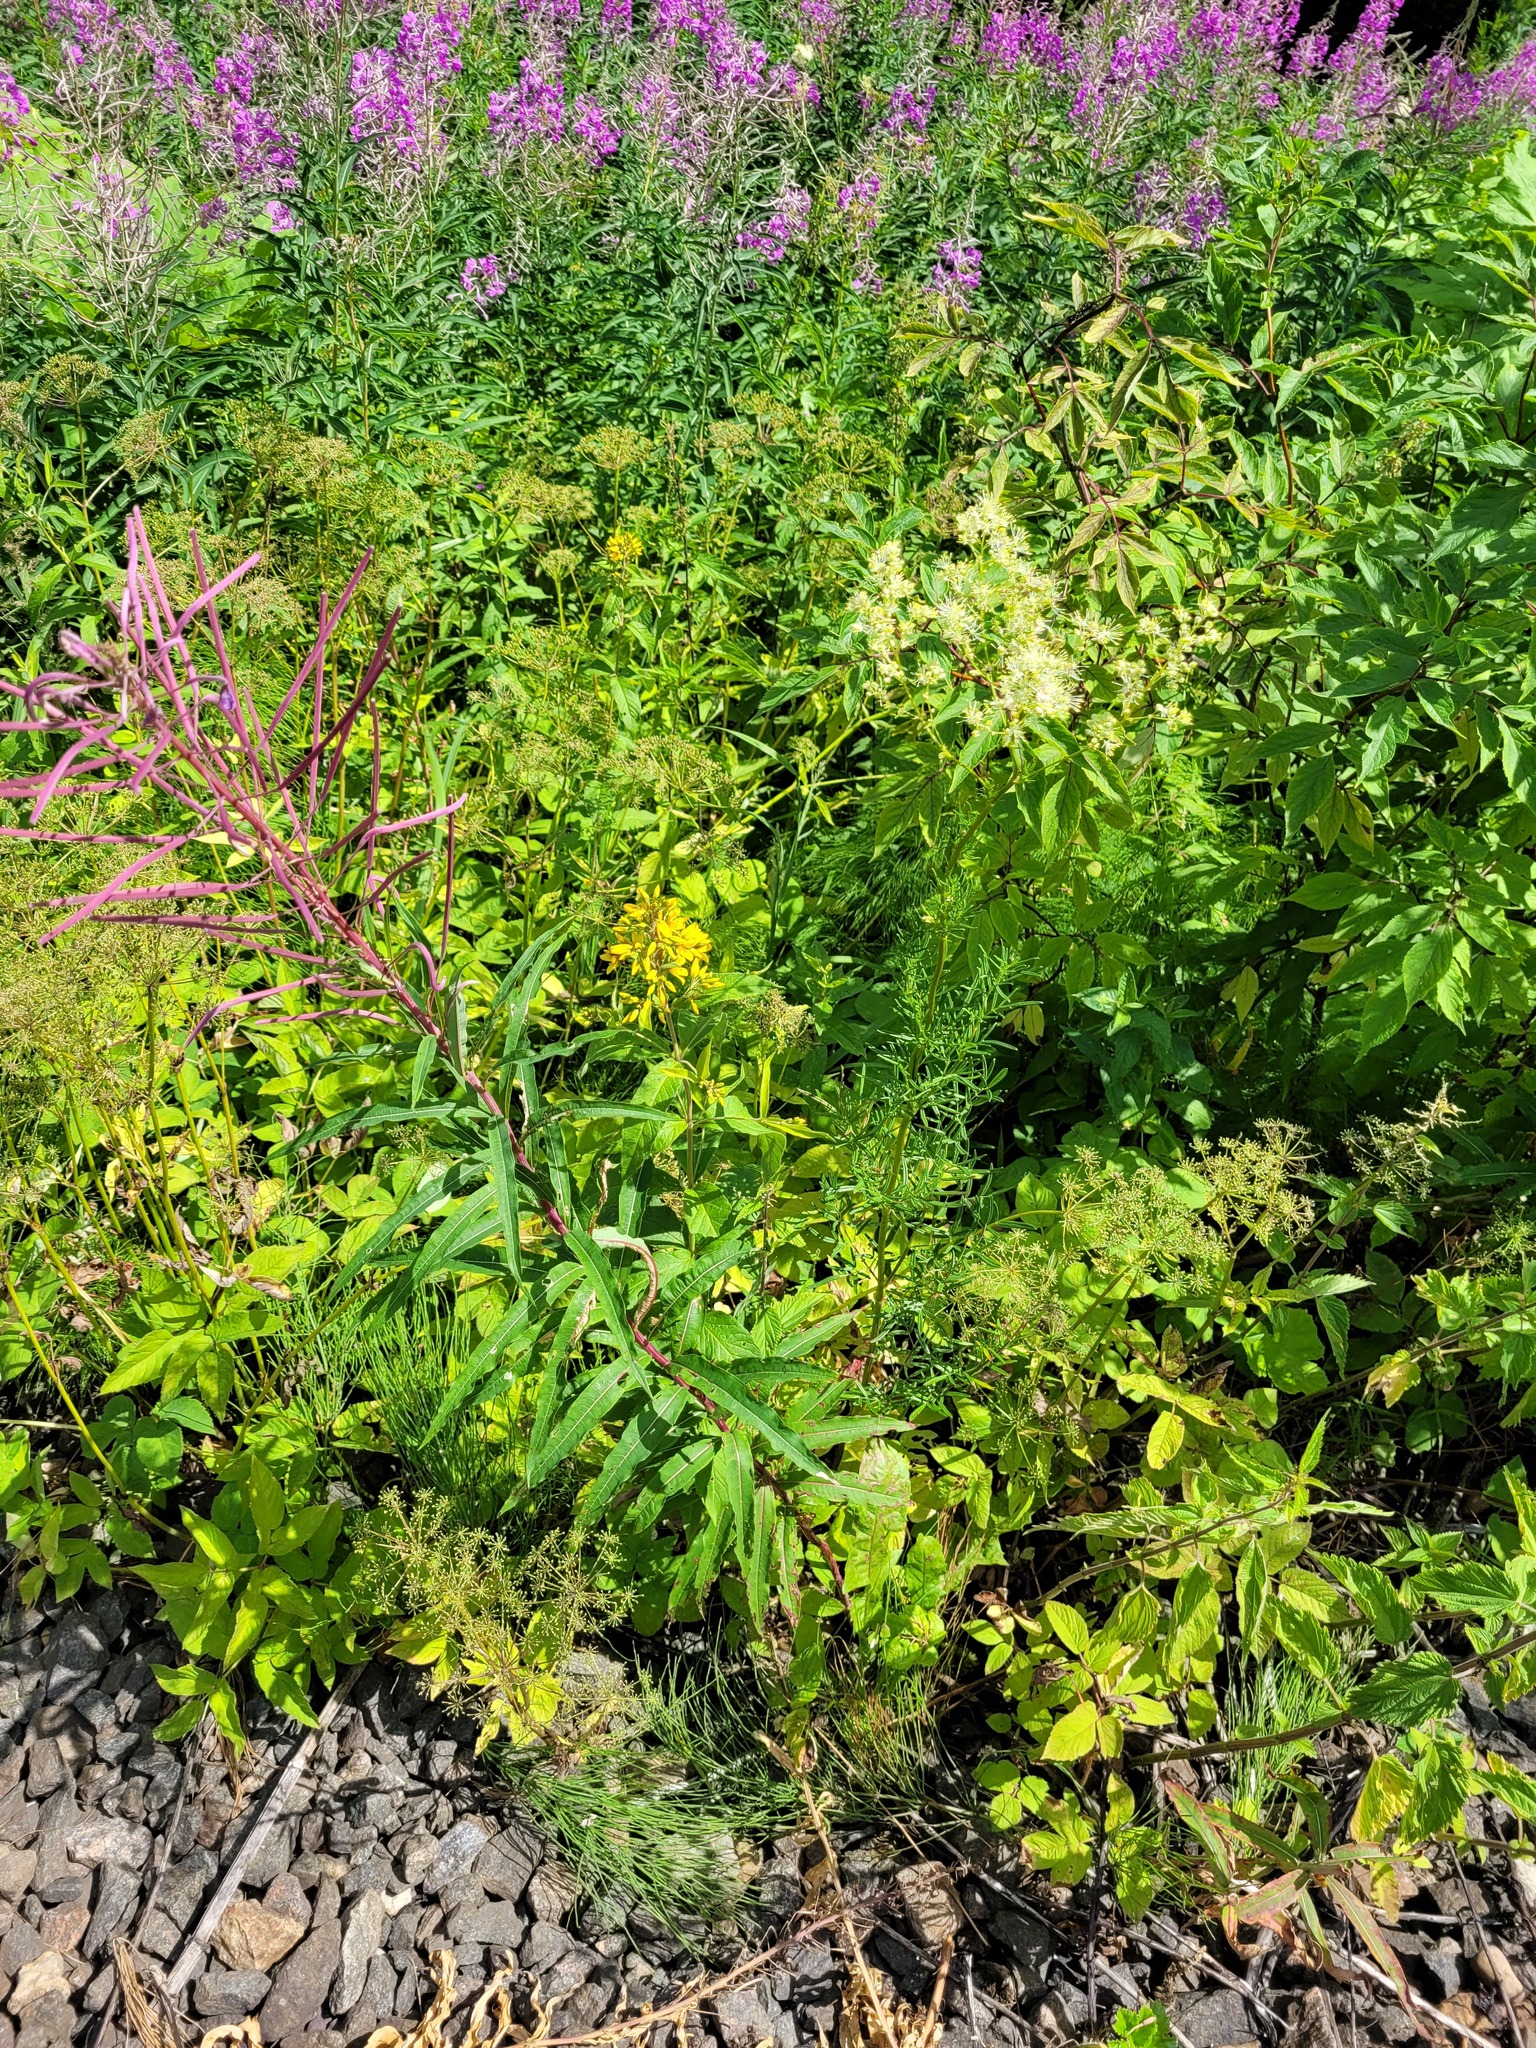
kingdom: Plantae
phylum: Tracheophyta
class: Magnoliopsida
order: Myrtales
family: Onagraceae
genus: Chamaenerion
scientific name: Chamaenerion angustifolium
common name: Fireweed
